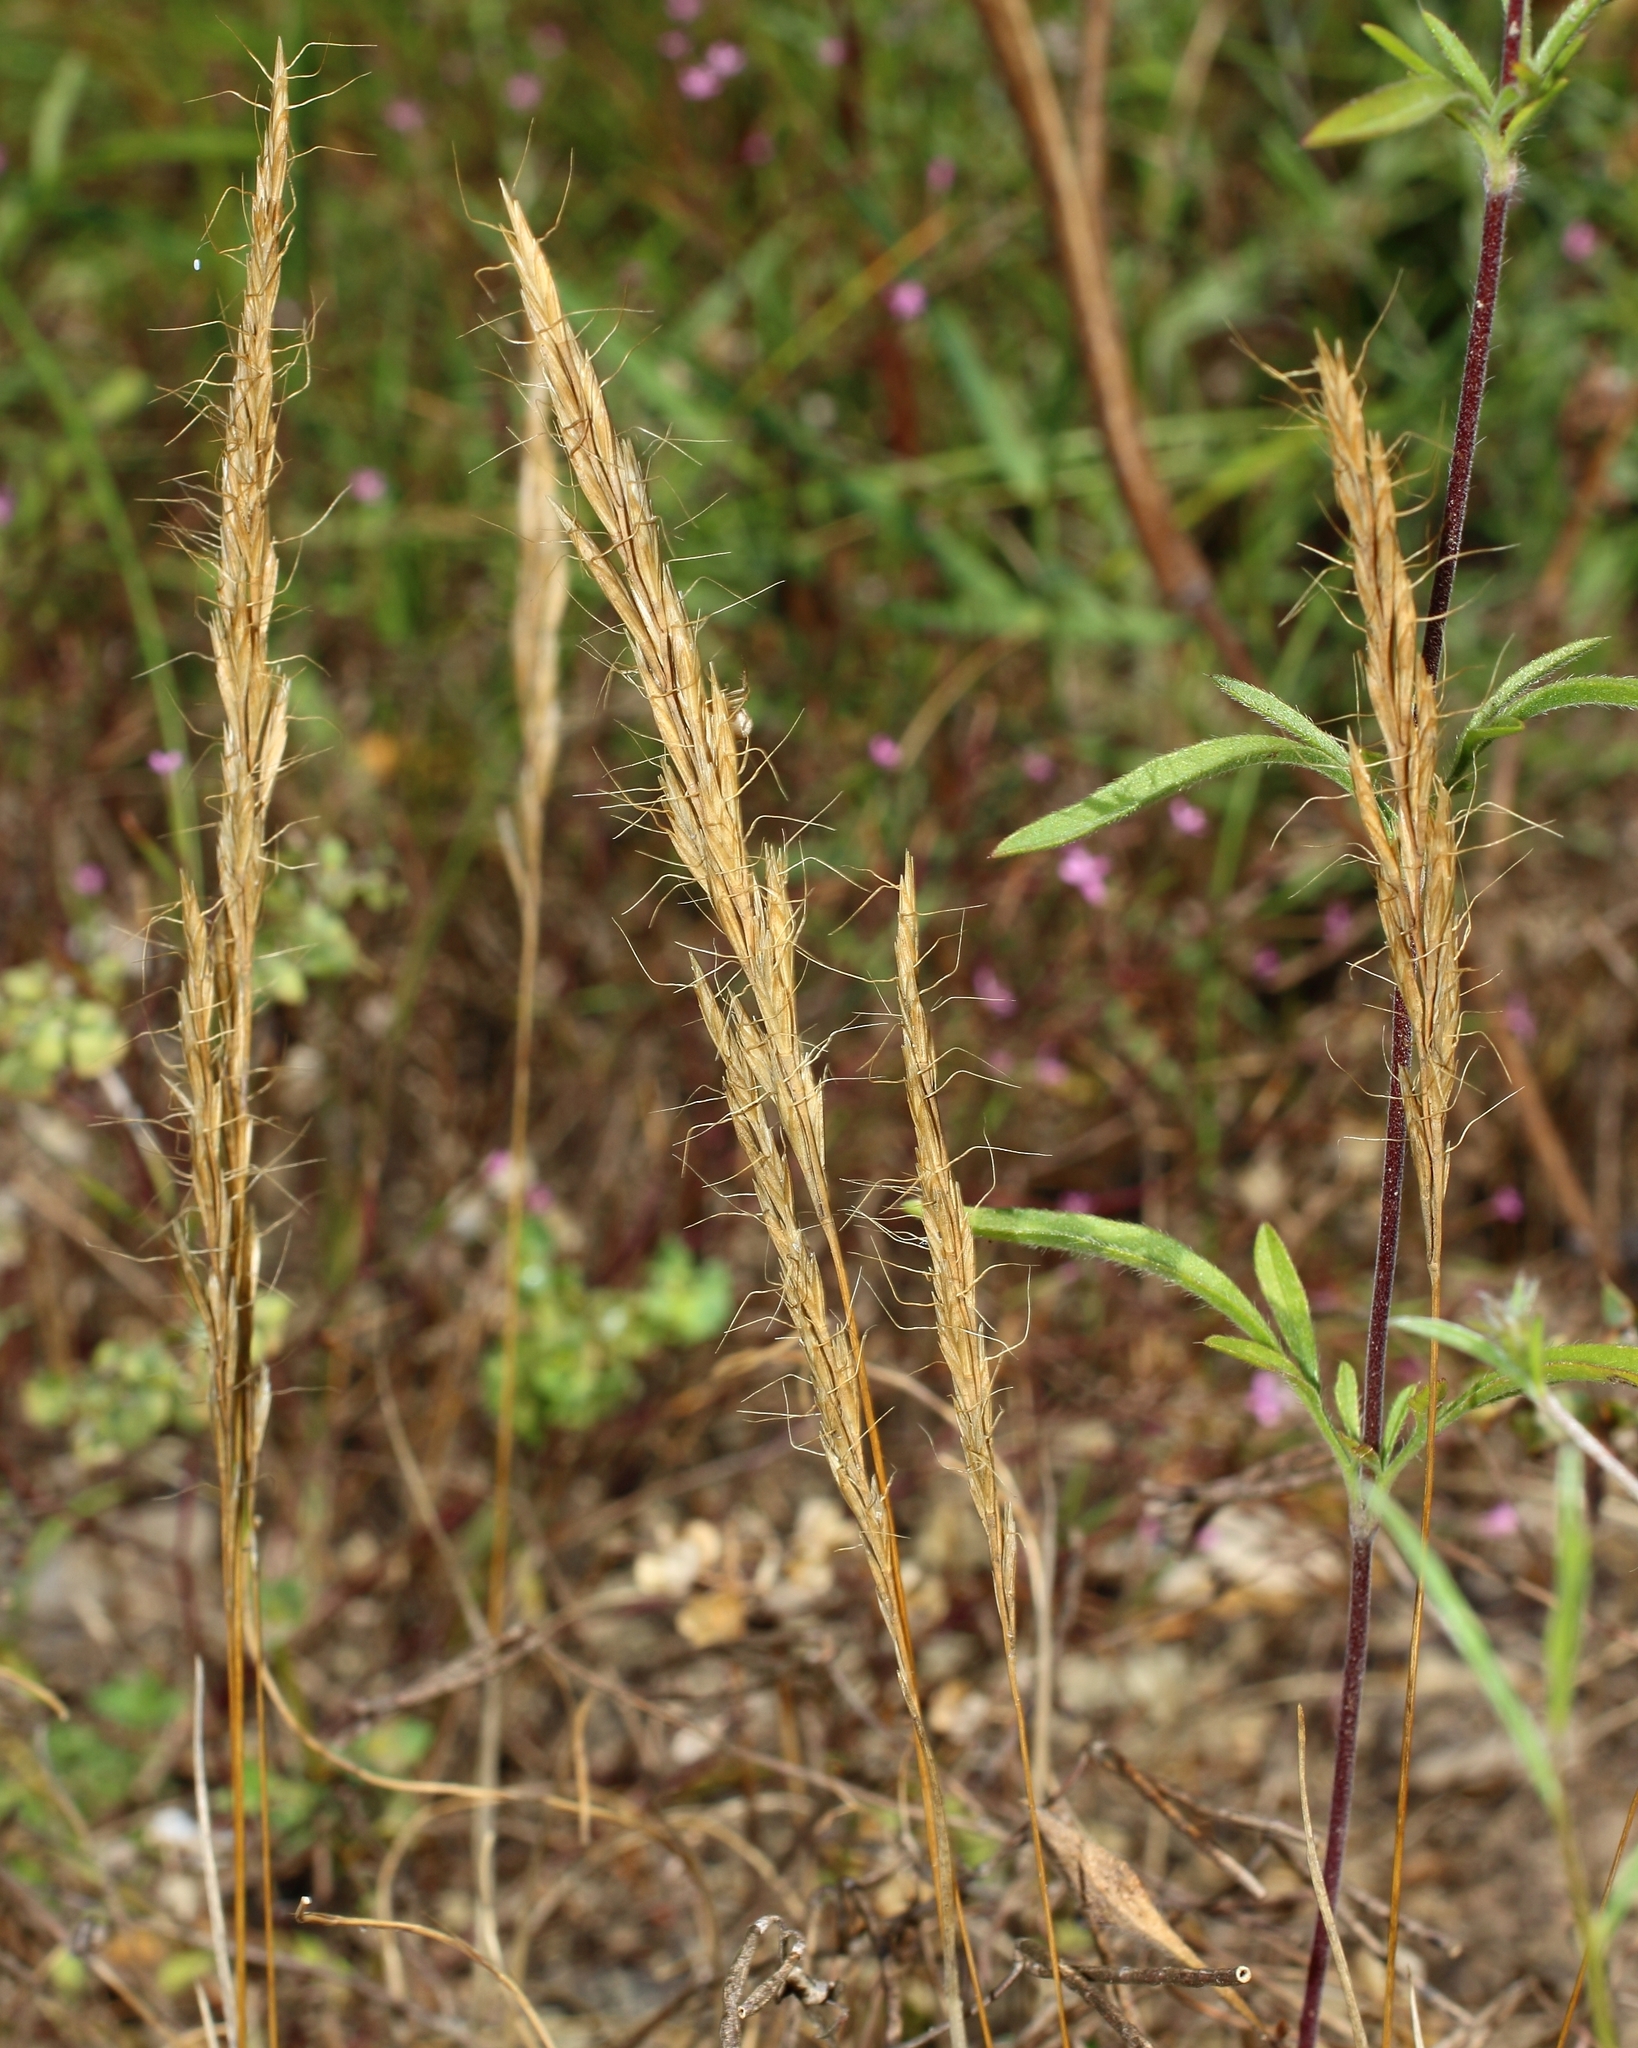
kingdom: Plantae
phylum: Tracheophyta
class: Liliopsida
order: Poales
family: Poaceae
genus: Ventenata
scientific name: Ventenata macra
